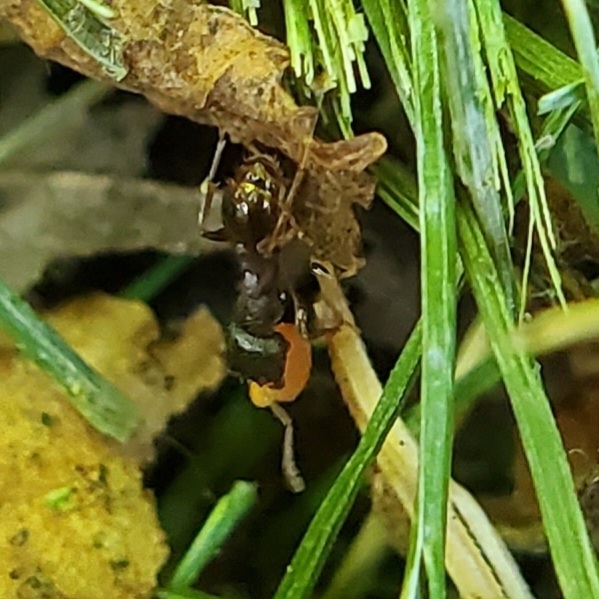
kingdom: Animalia
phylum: Arthropoda
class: Insecta
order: Hymenoptera
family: Formicidae
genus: Tetramorium
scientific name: Tetramorium immigrans
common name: Pavement ant
